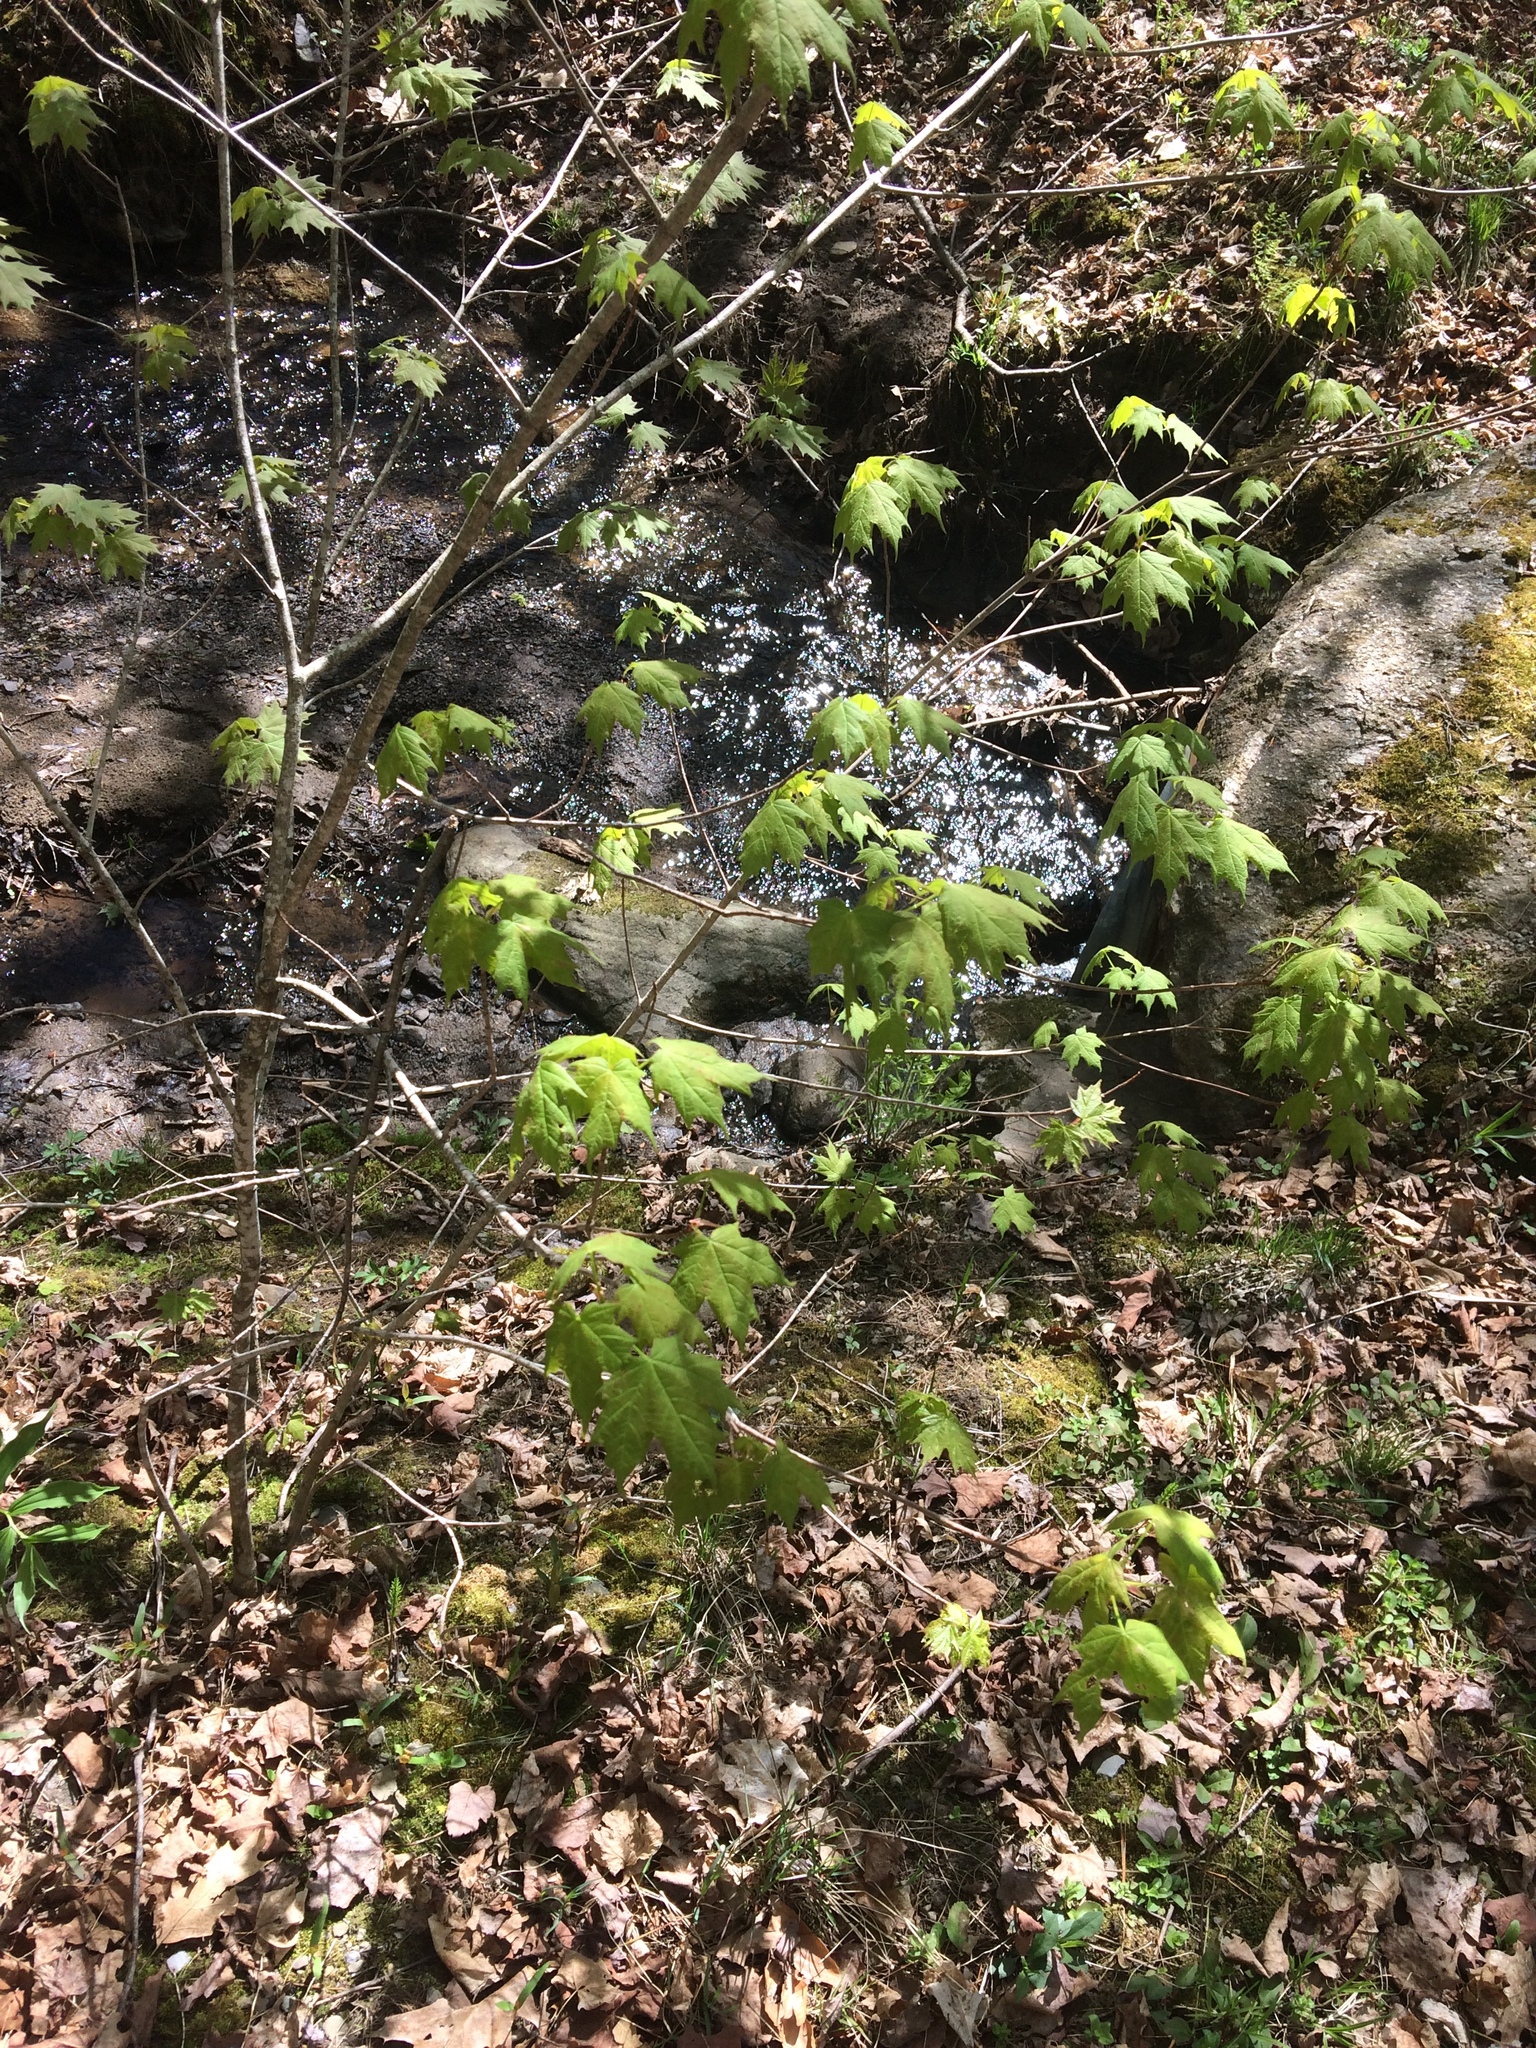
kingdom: Plantae
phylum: Tracheophyta
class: Magnoliopsida
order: Sapindales
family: Sapindaceae
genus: Acer
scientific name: Acer saccharum
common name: Sugar maple
